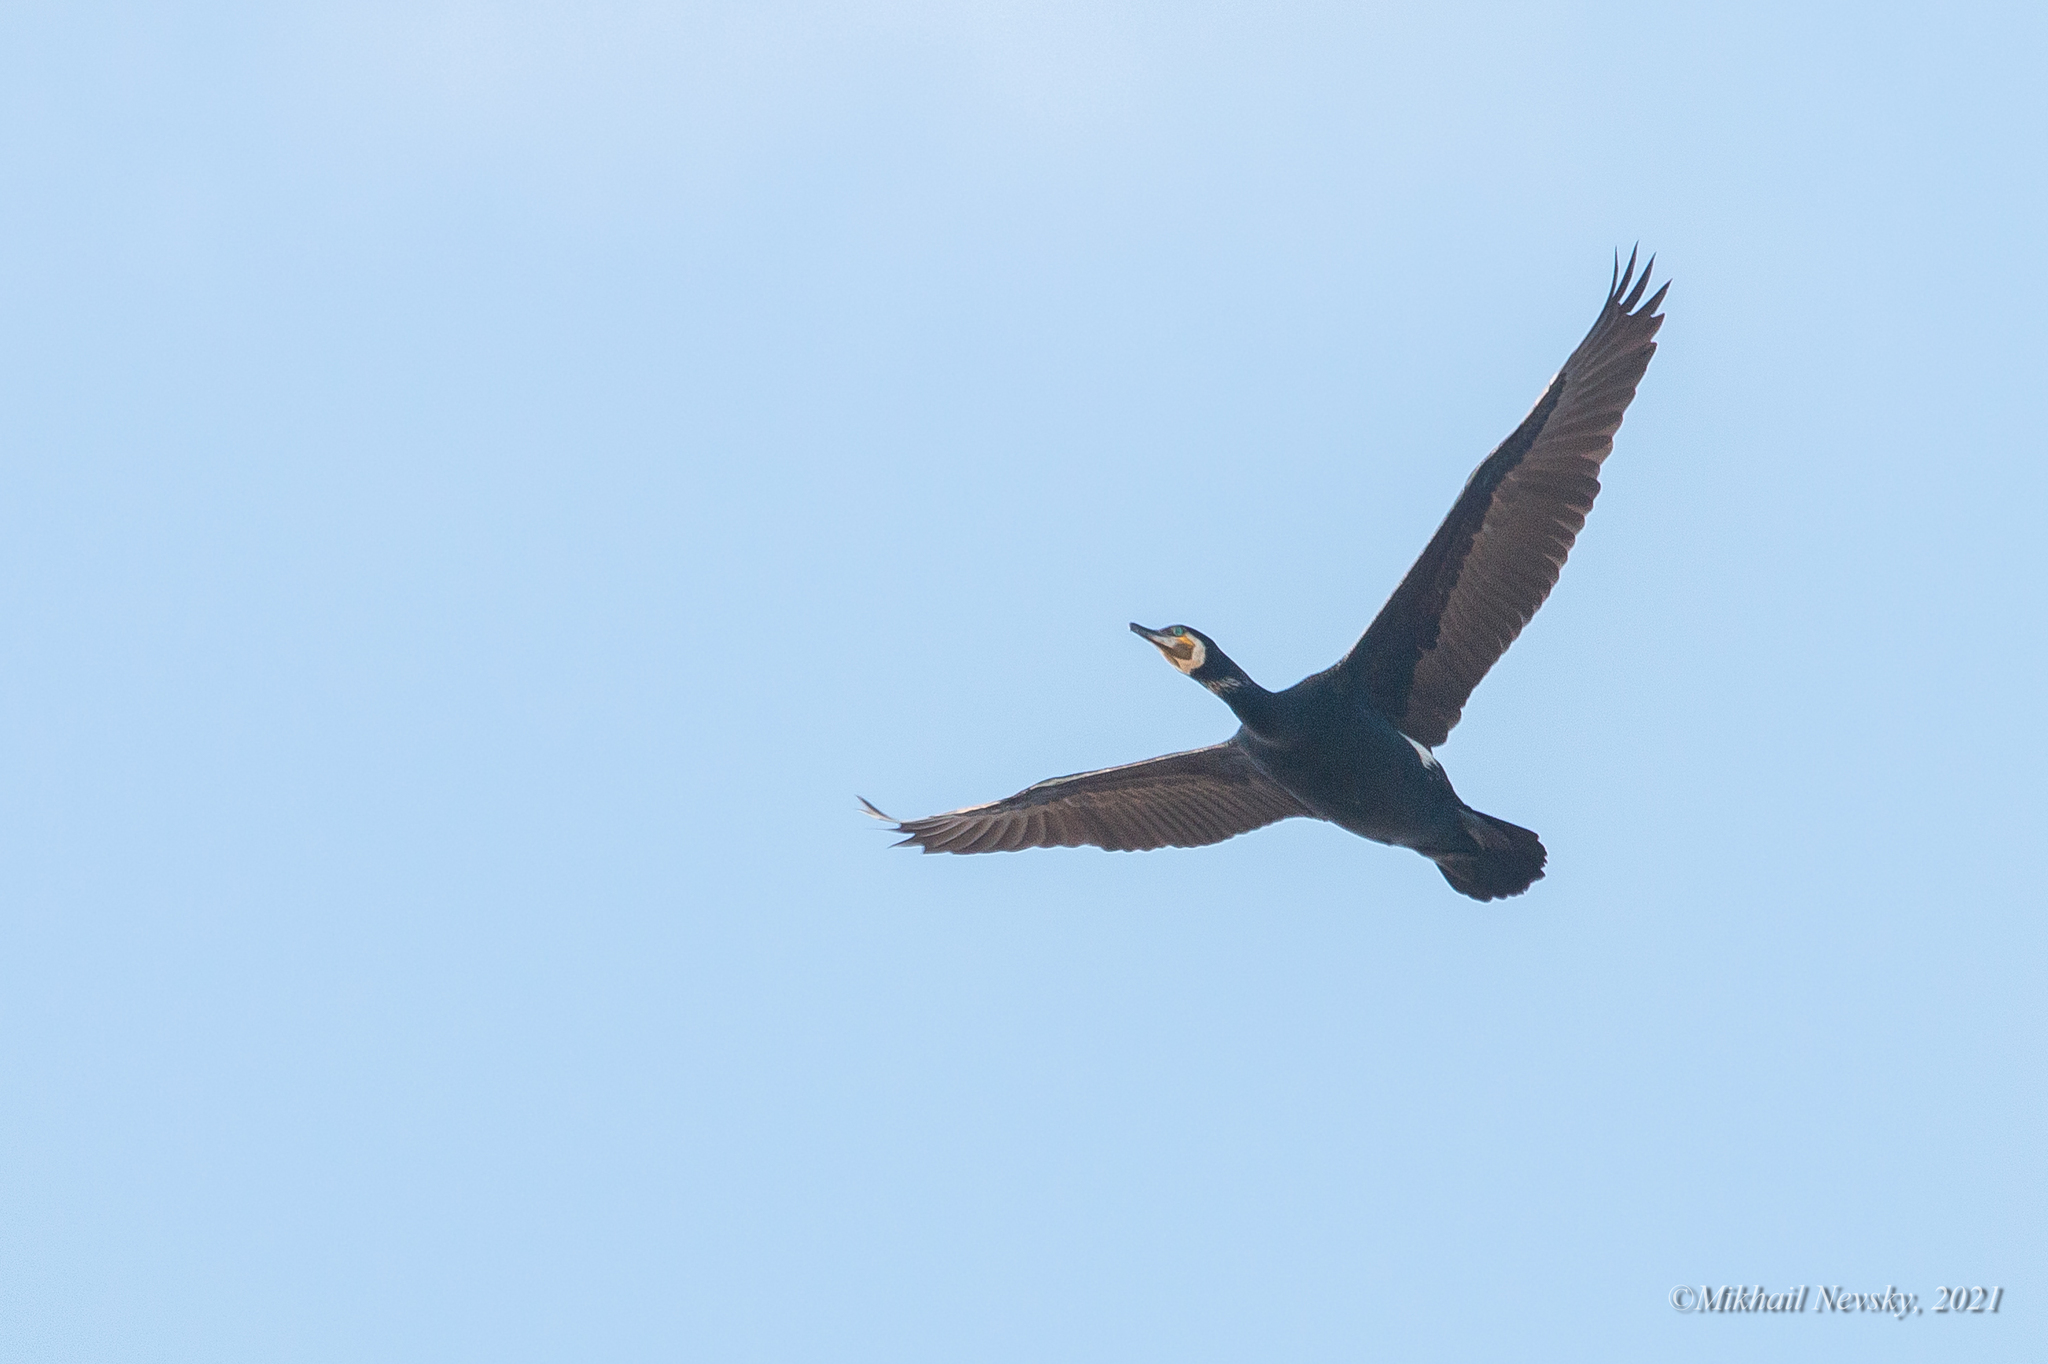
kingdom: Animalia
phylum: Chordata
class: Aves
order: Suliformes
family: Phalacrocoracidae
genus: Phalacrocorax
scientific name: Phalacrocorax capillatus
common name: Japanese cormorant
